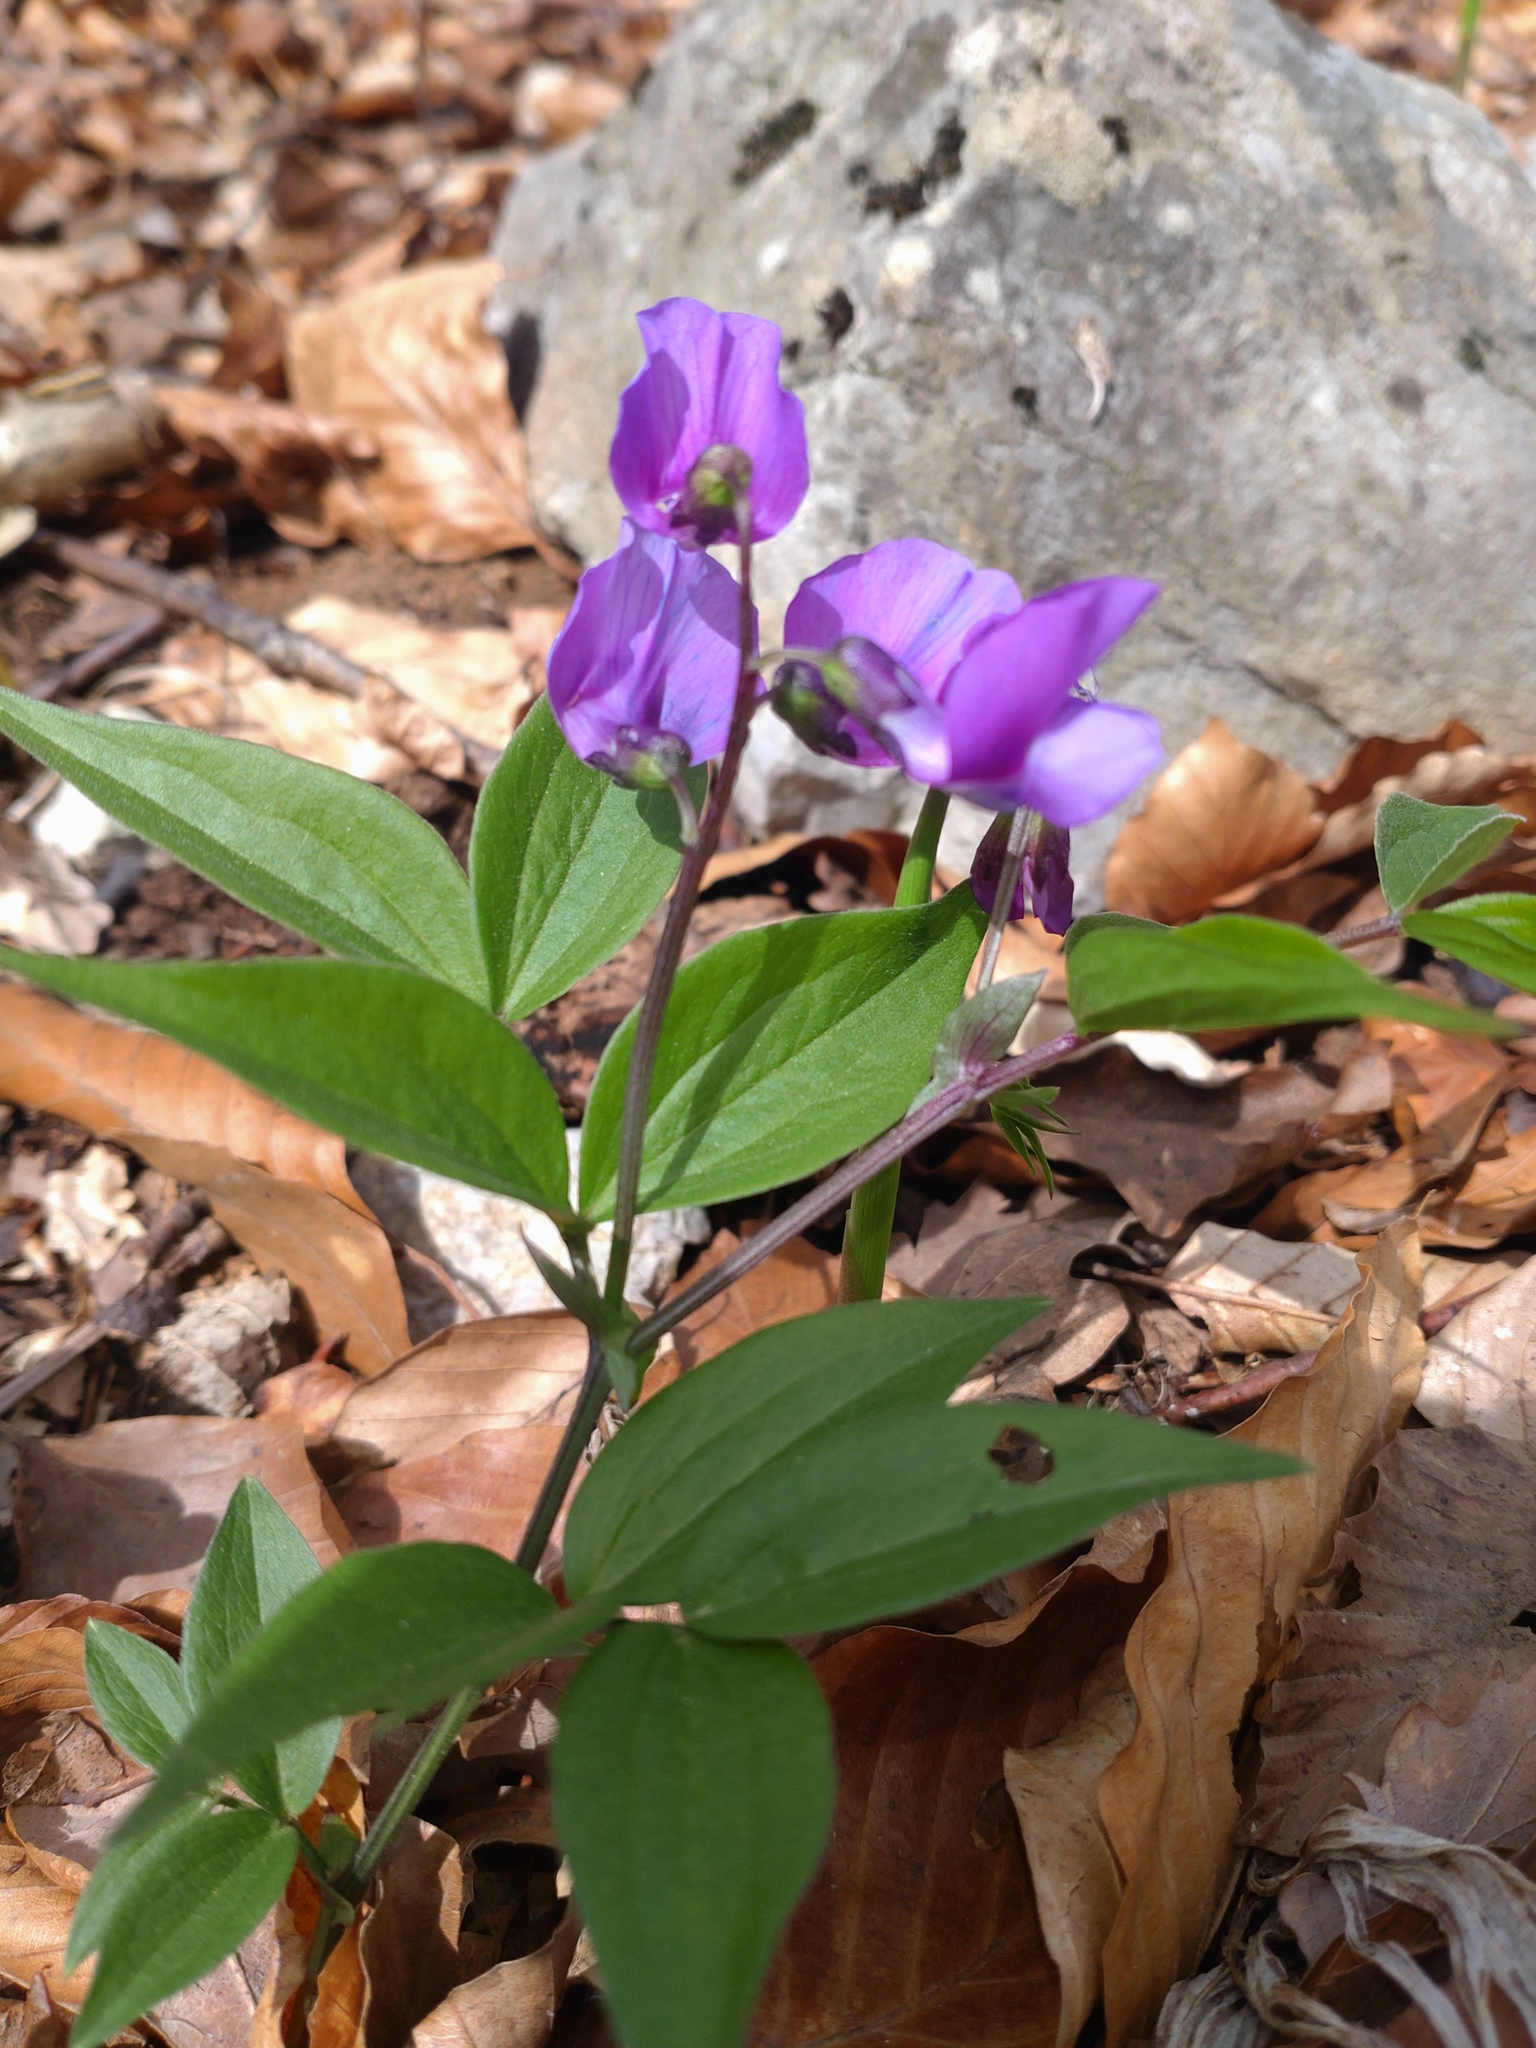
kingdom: Plantae
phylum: Tracheophyta
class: Magnoliopsida
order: Fabales
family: Fabaceae
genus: Lathyrus
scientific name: Lathyrus vernus
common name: Spring pea
